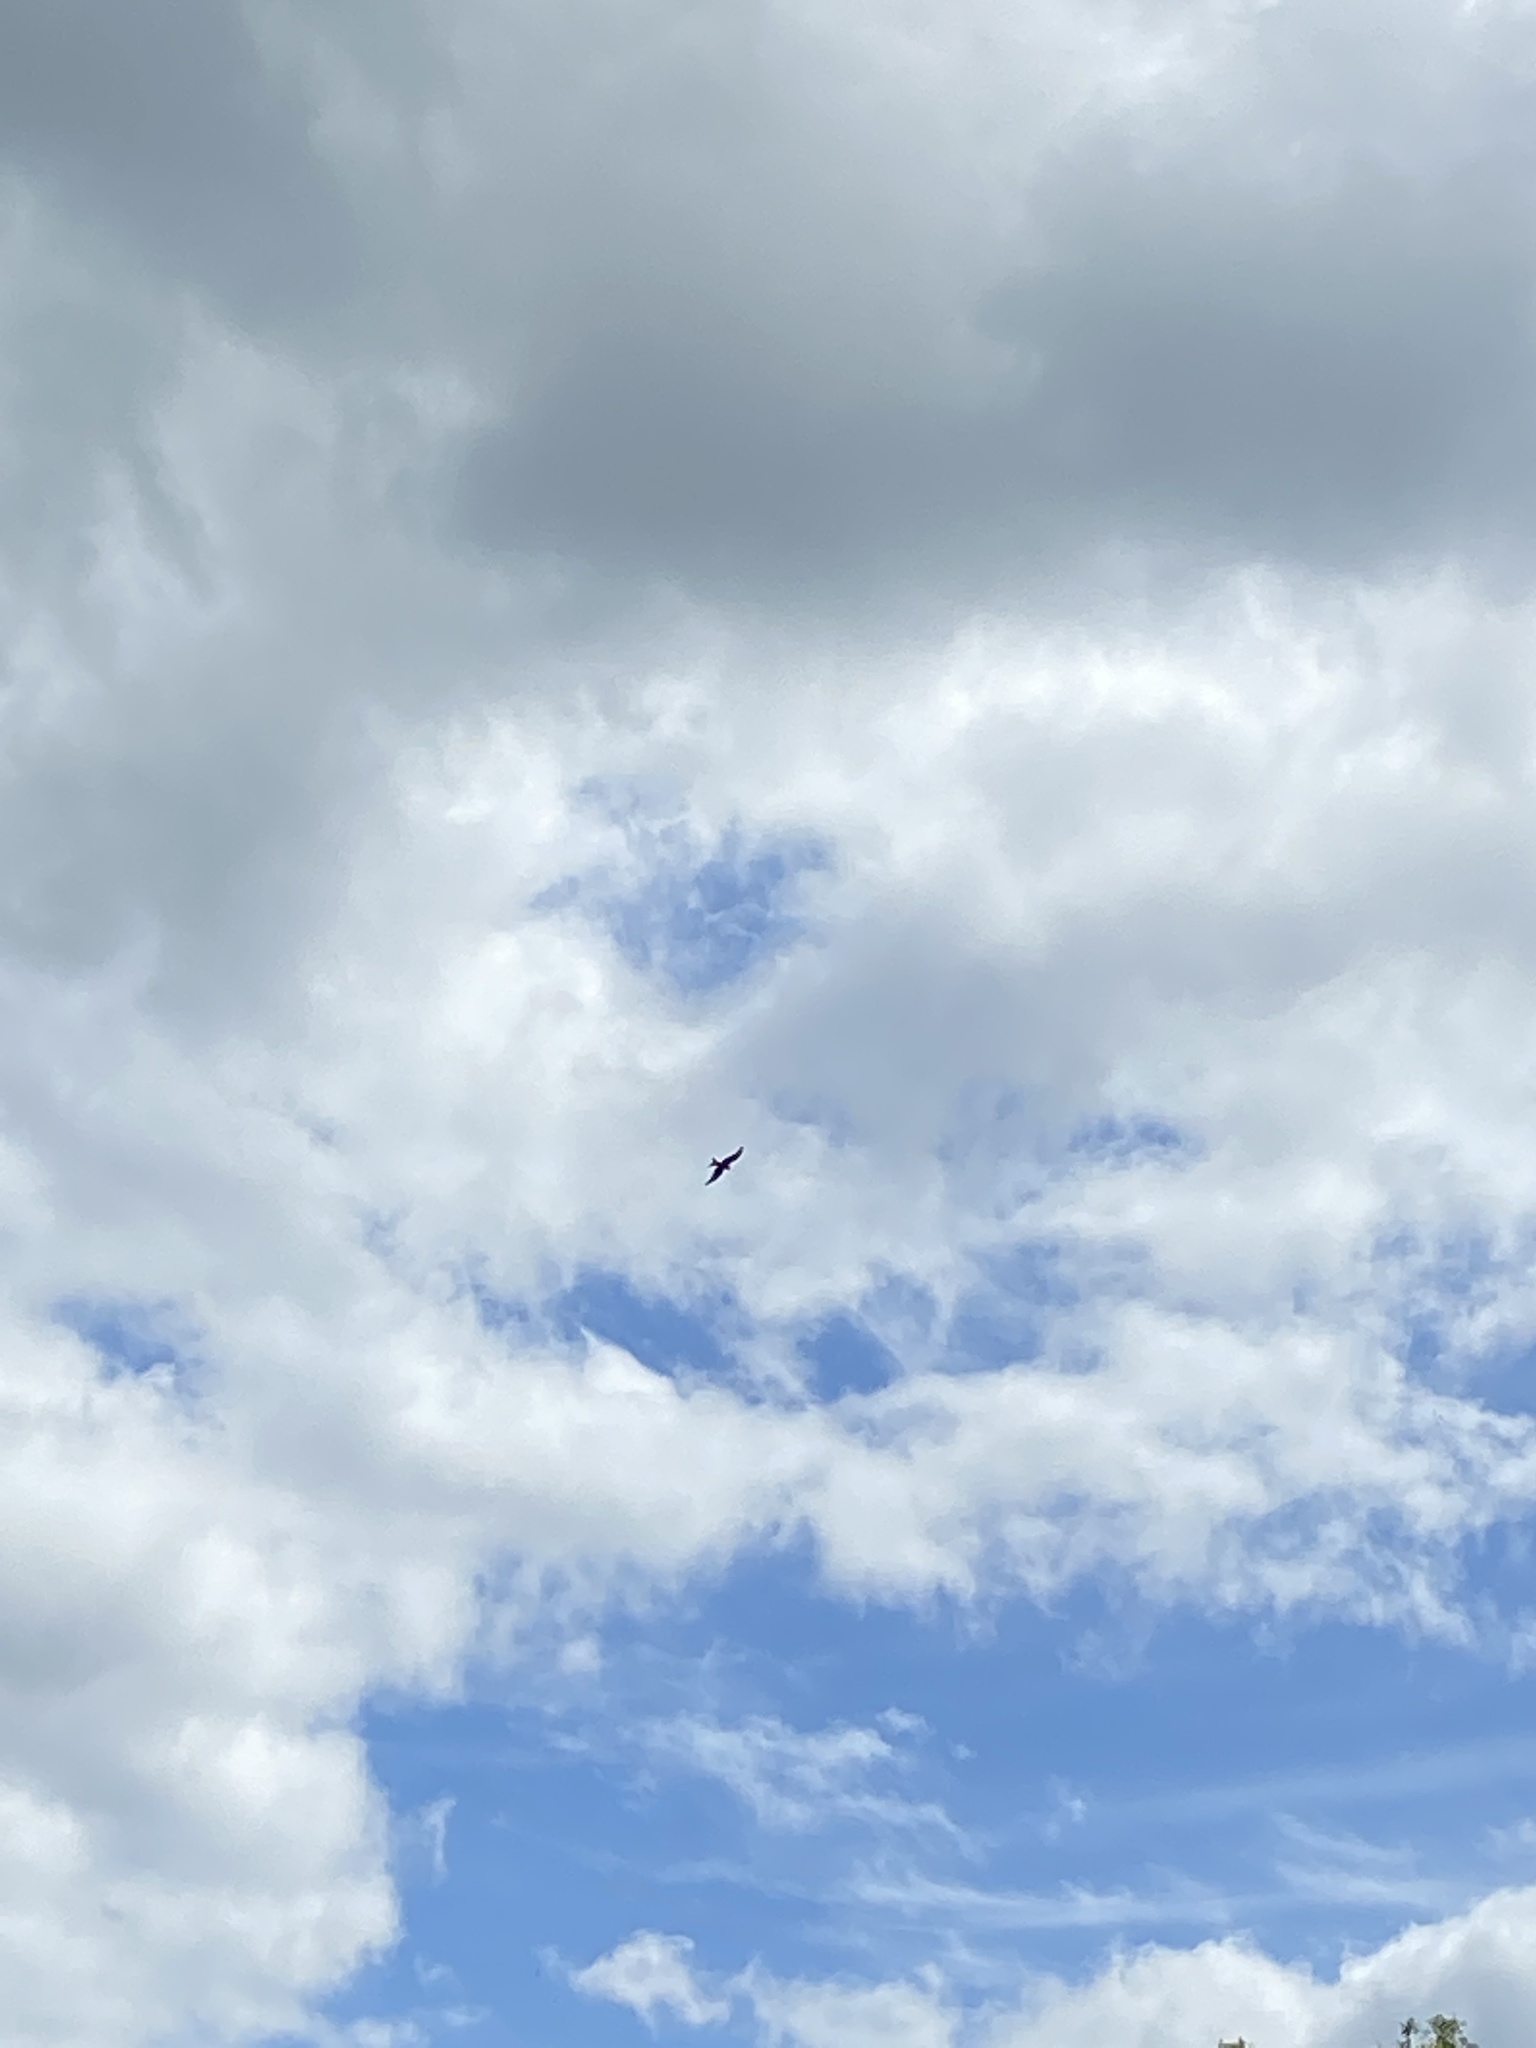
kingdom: Animalia
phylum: Chordata
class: Aves
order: Accipitriformes
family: Accipitridae
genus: Milvus
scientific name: Milvus milvus
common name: Red kite
